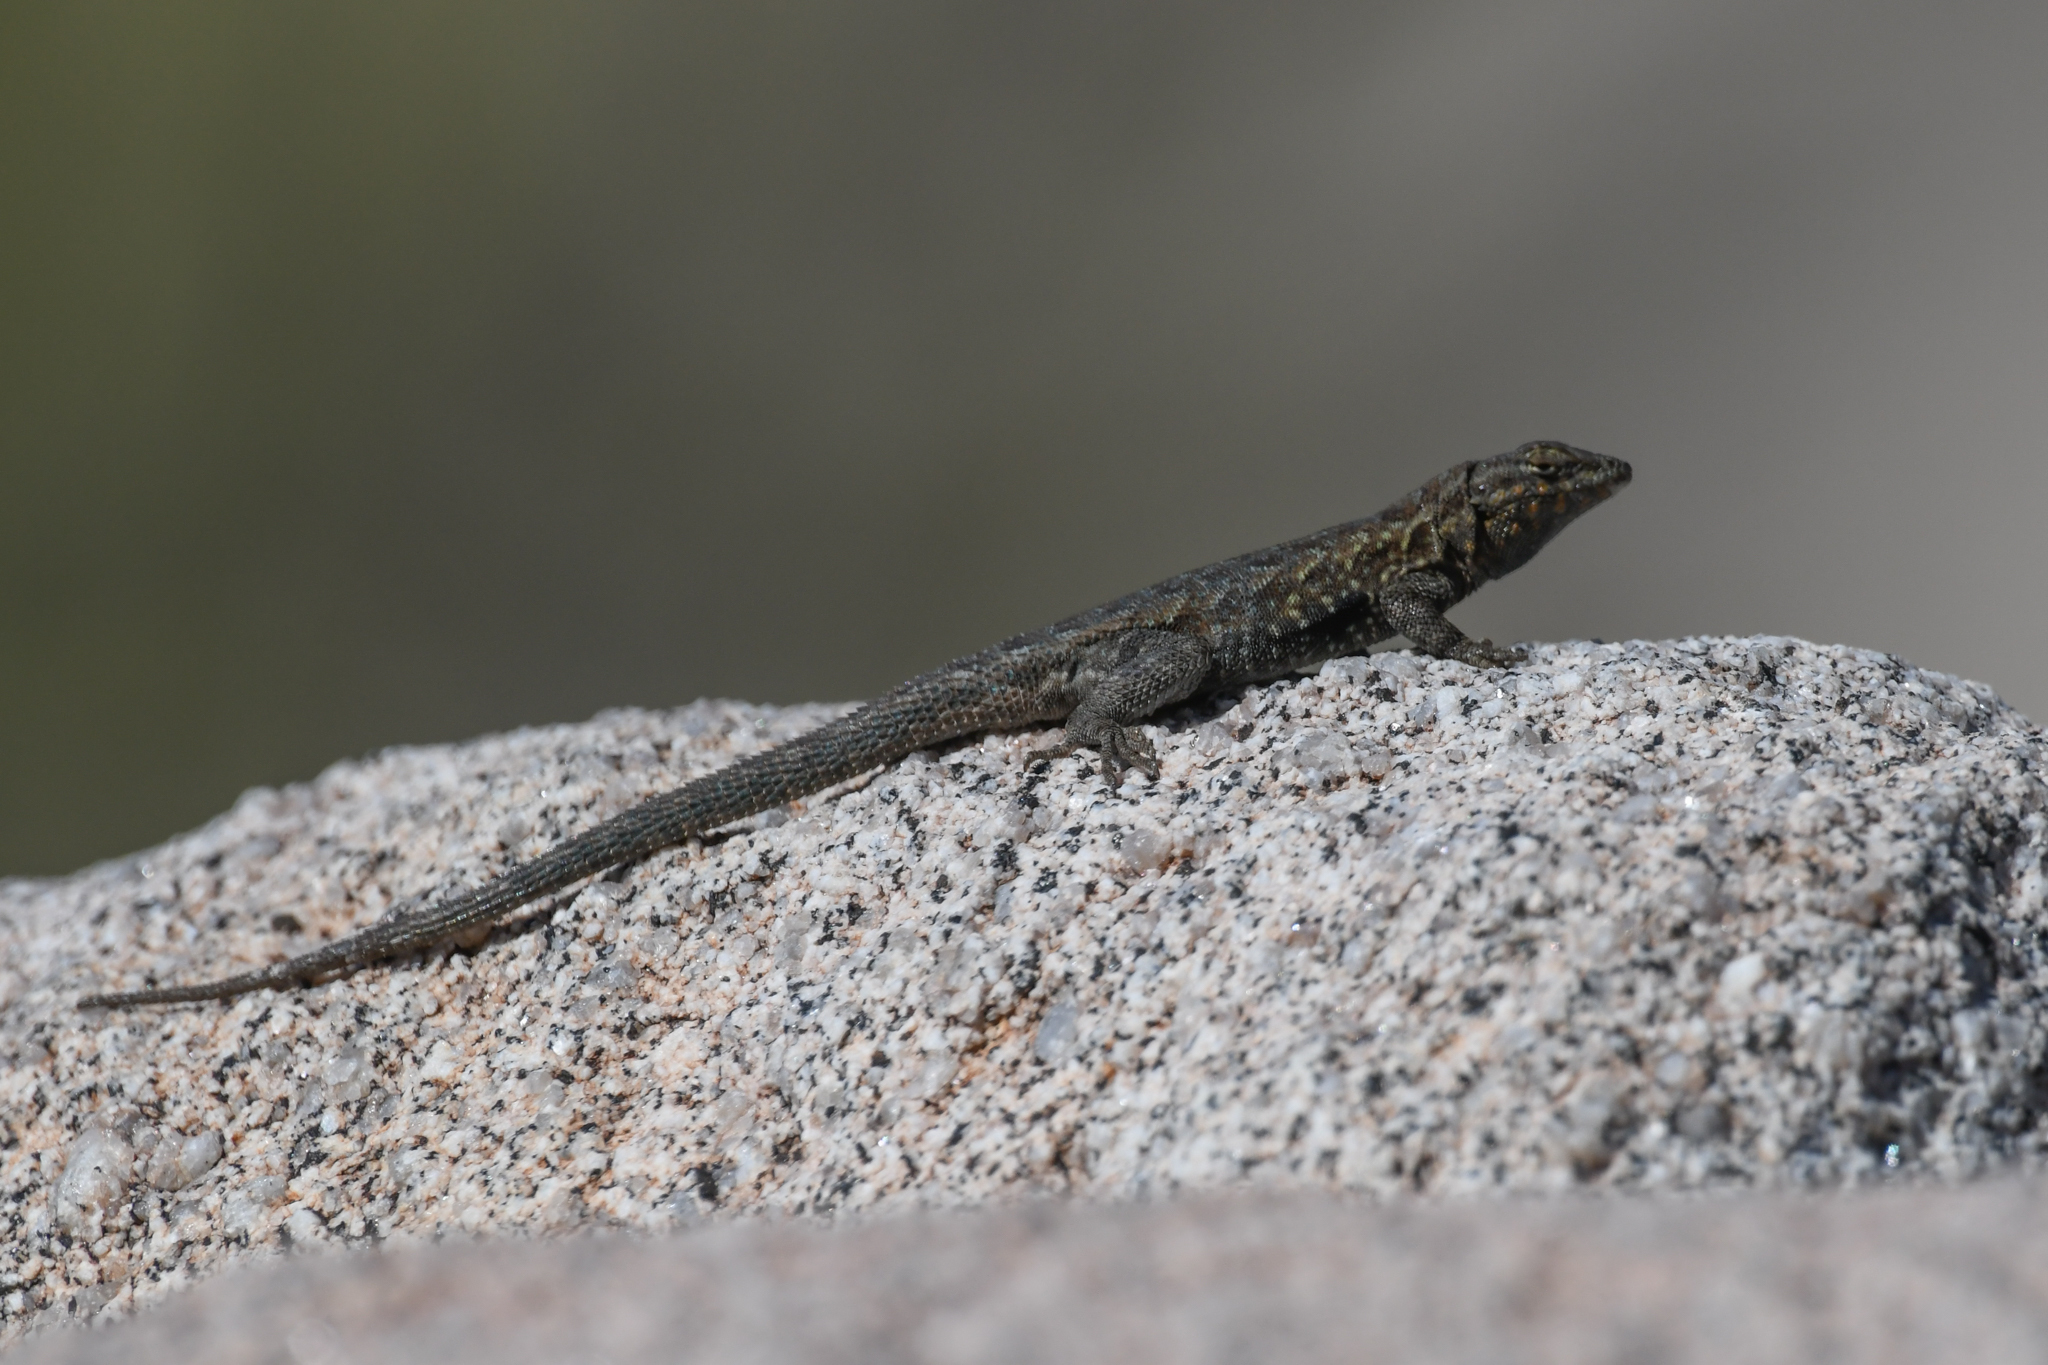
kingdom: Animalia
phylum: Chordata
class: Squamata
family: Phrynosomatidae
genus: Uta
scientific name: Uta stansburiana
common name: Side-blotched lizard
